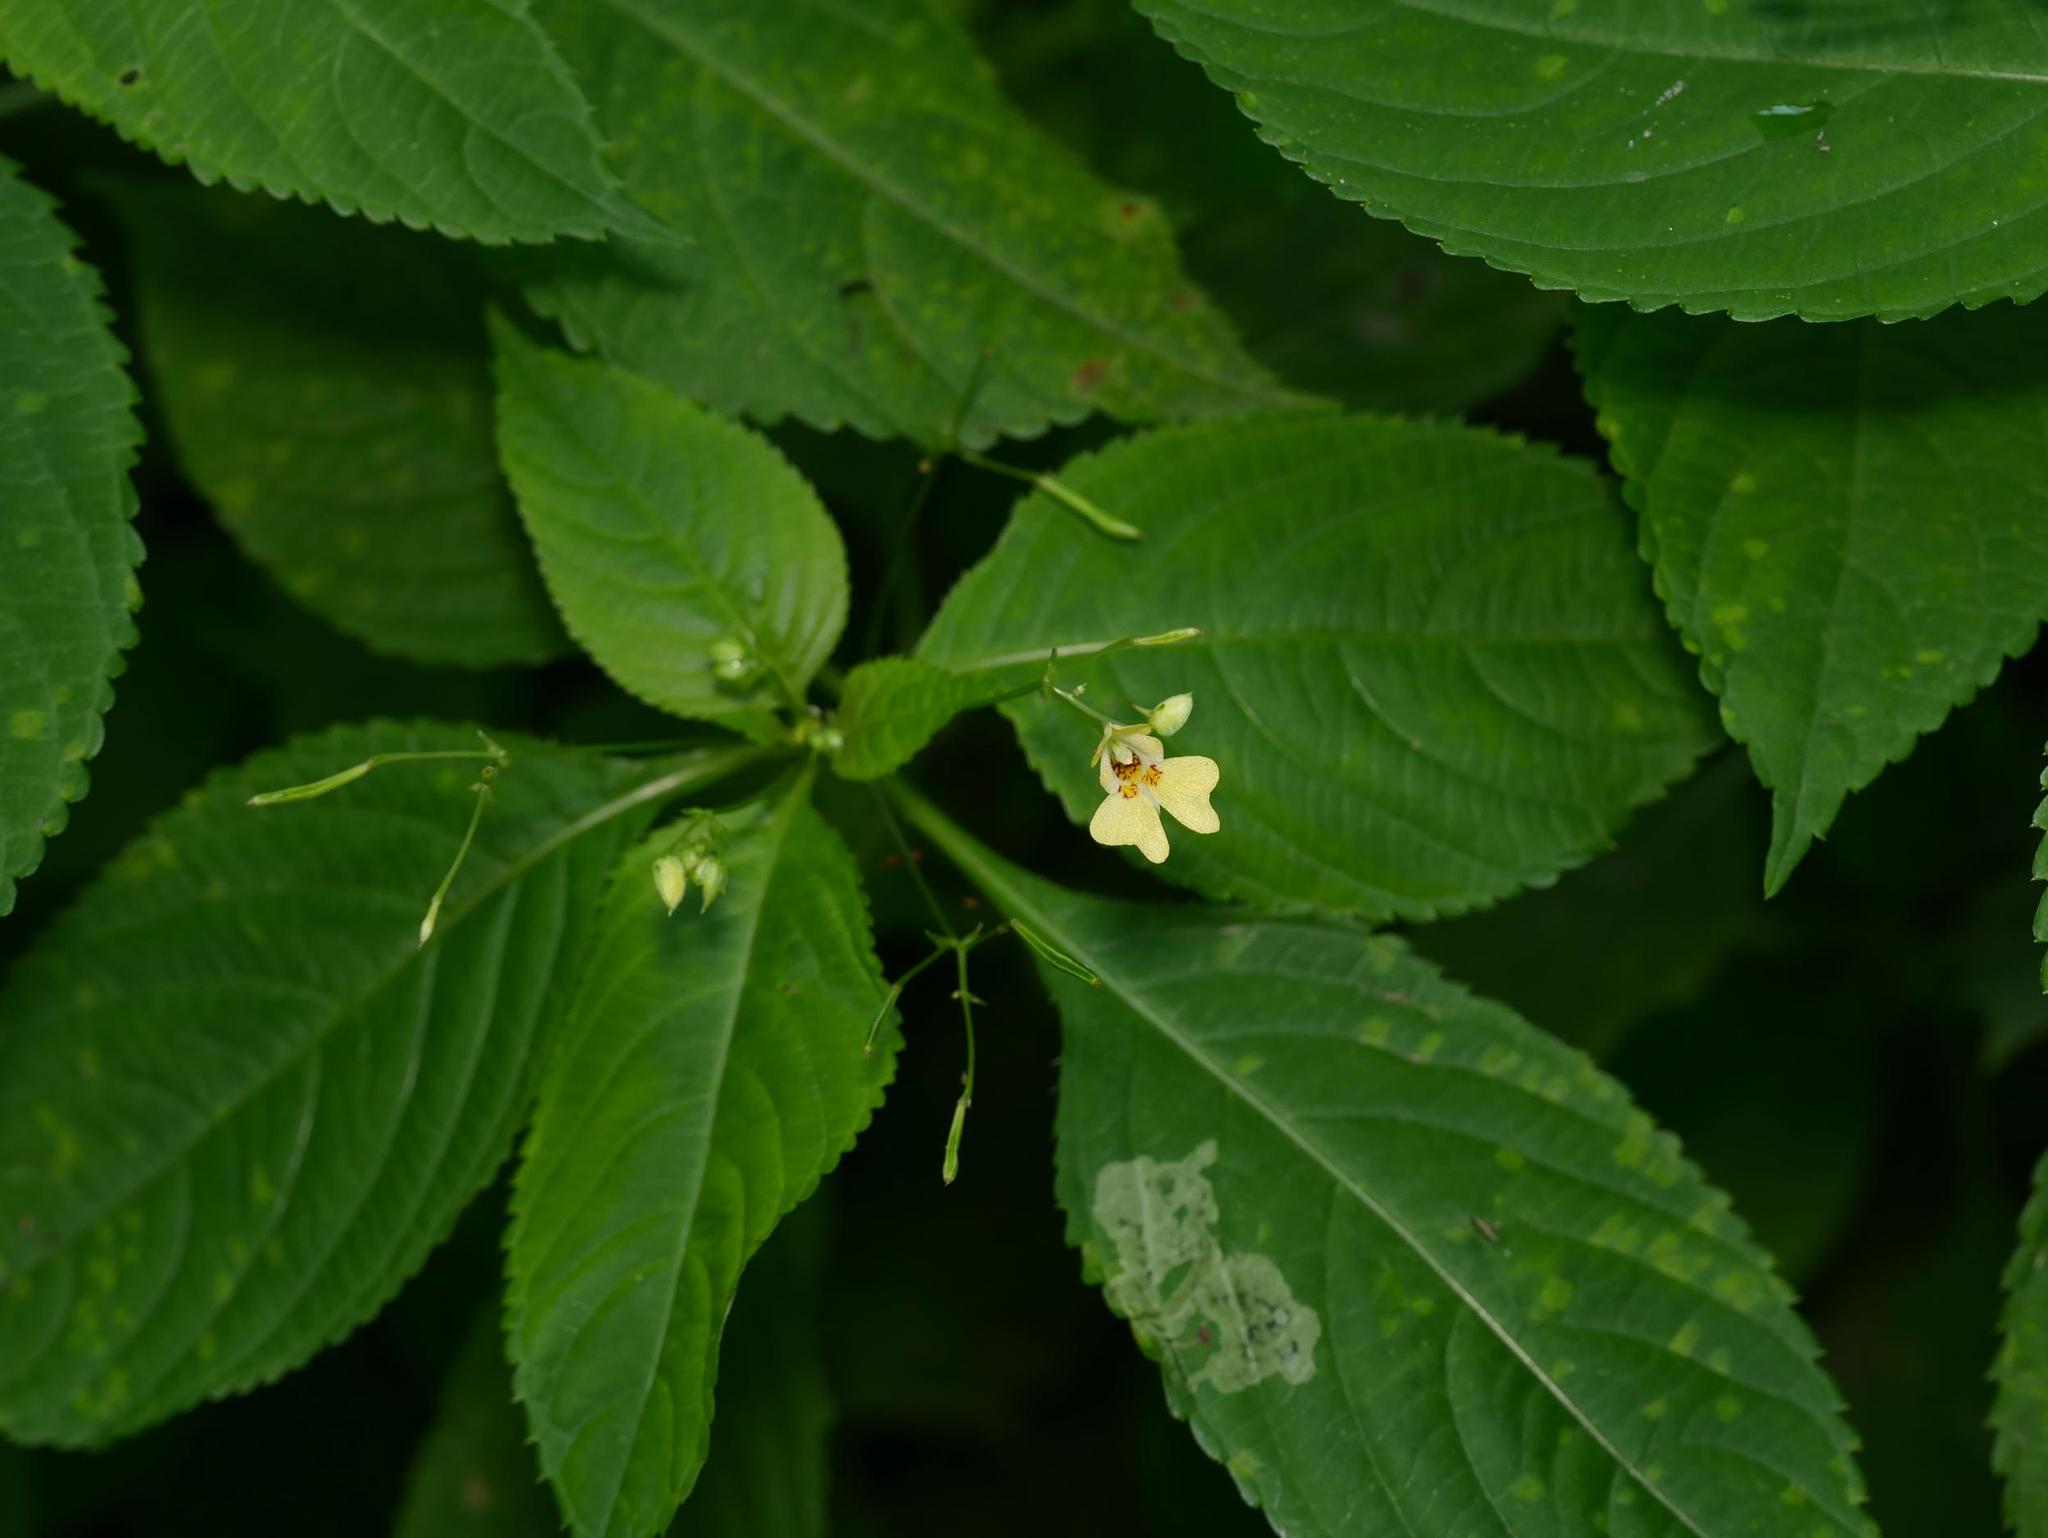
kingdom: Plantae
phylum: Tracheophyta
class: Magnoliopsida
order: Ericales
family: Balsaminaceae
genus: Impatiens
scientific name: Impatiens parviflora
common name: Small balsam
